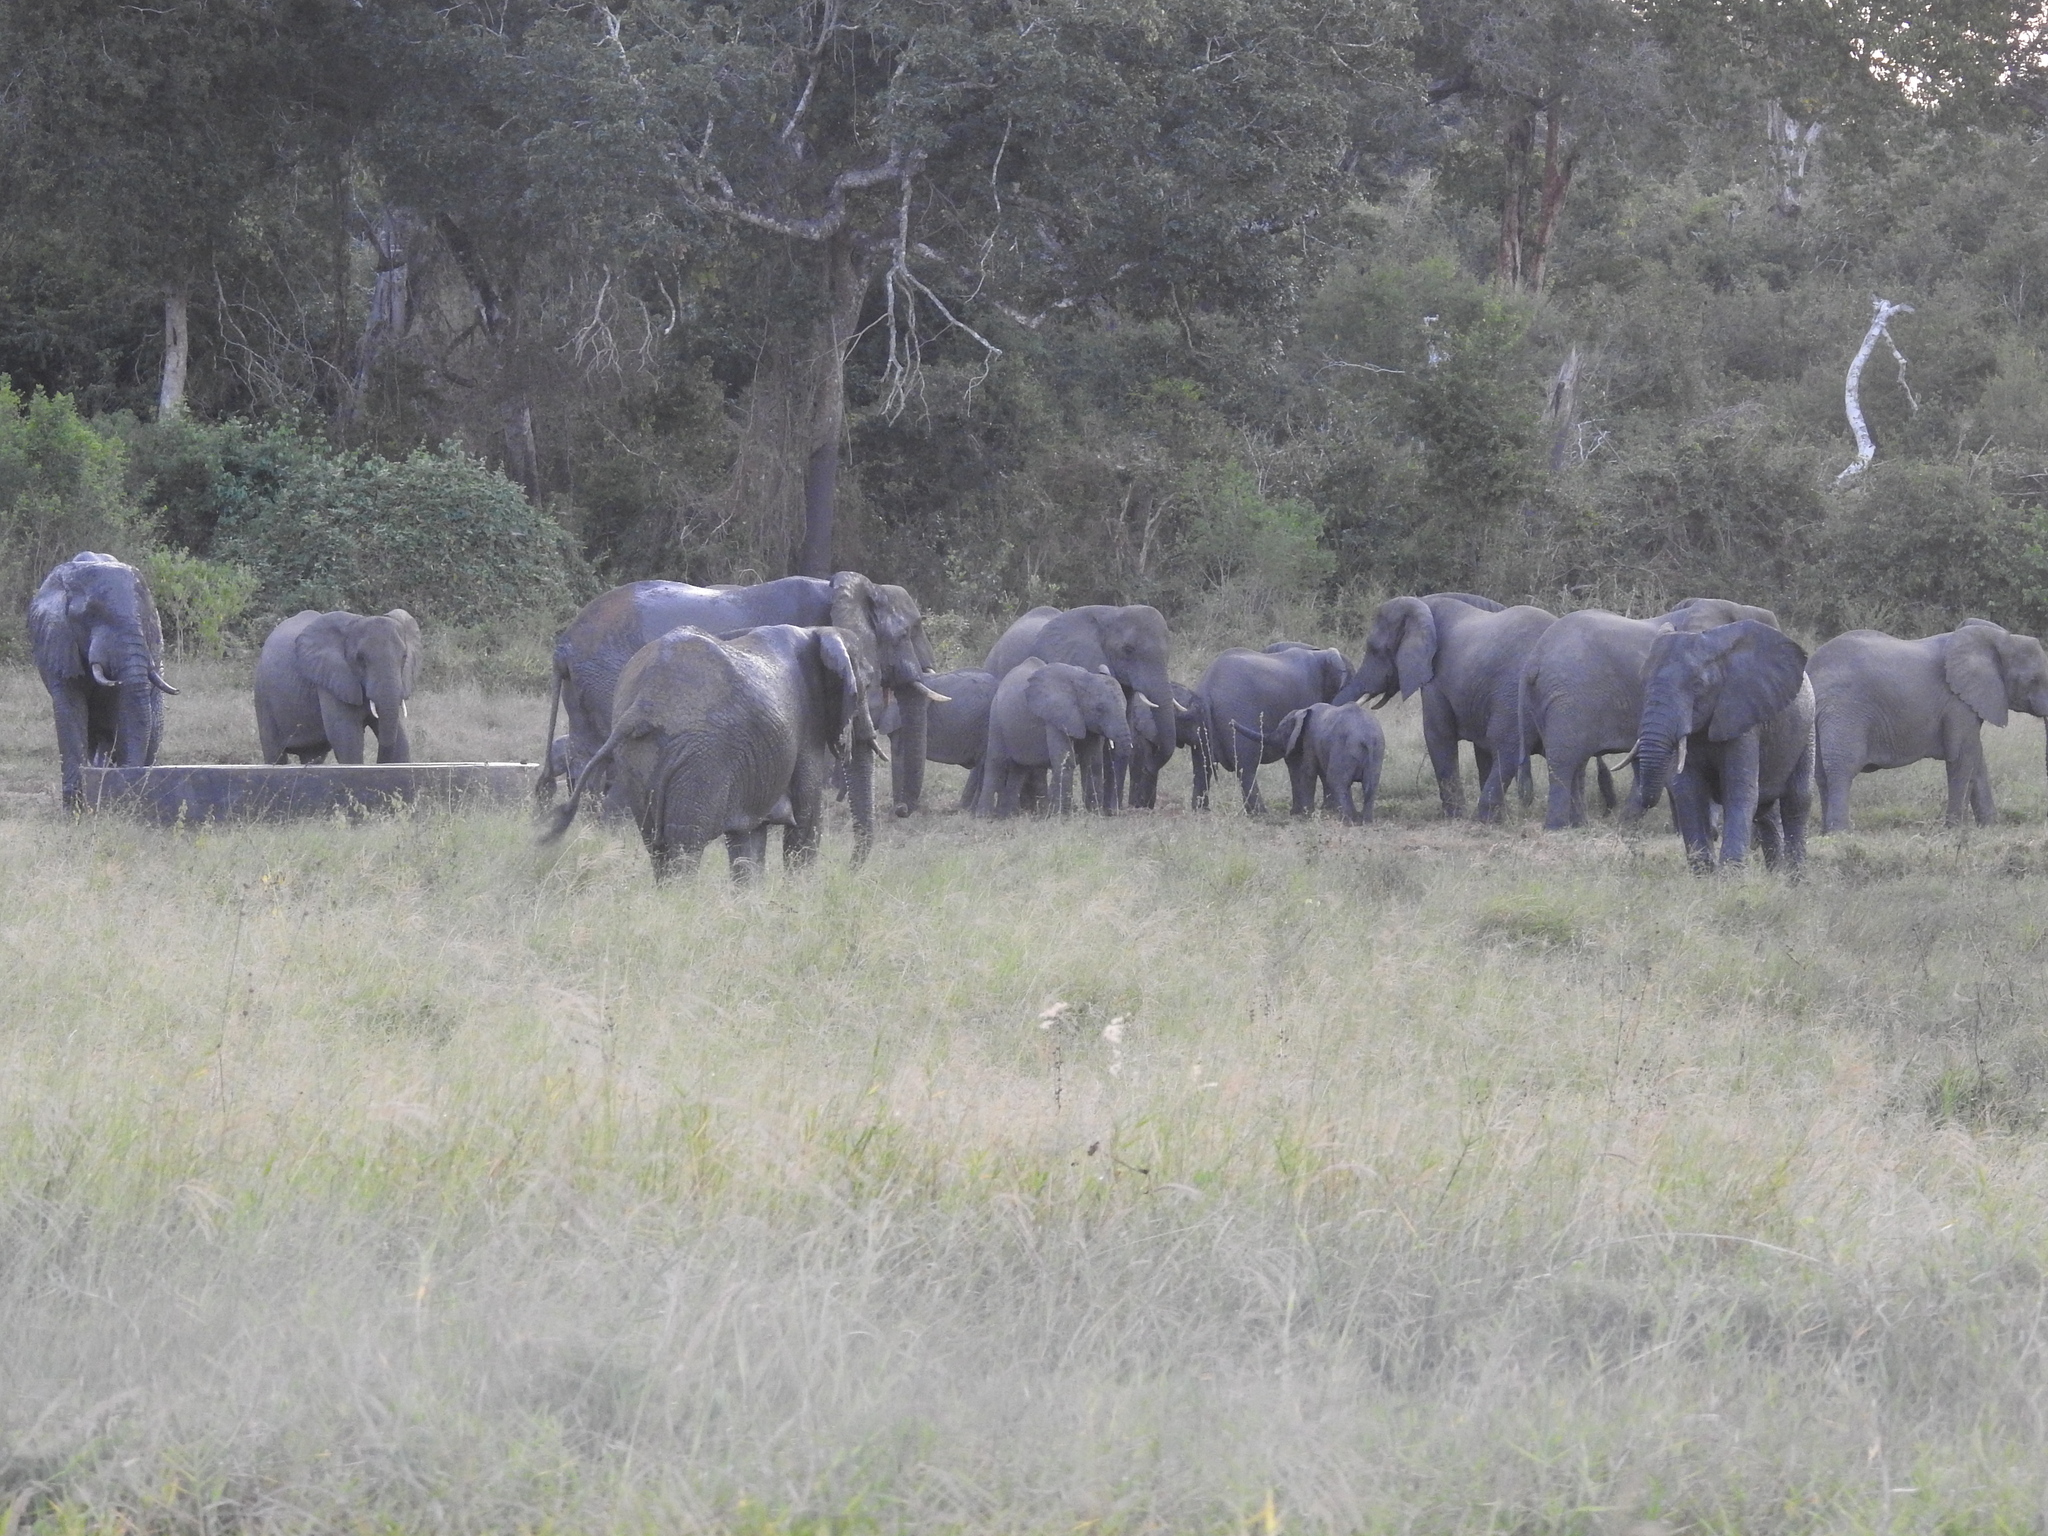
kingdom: Animalia
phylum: Chordata
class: Mammalia
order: Proboscidea
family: Elephantidae
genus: Loxodonta
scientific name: Loxodonta africana
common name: African elephant
